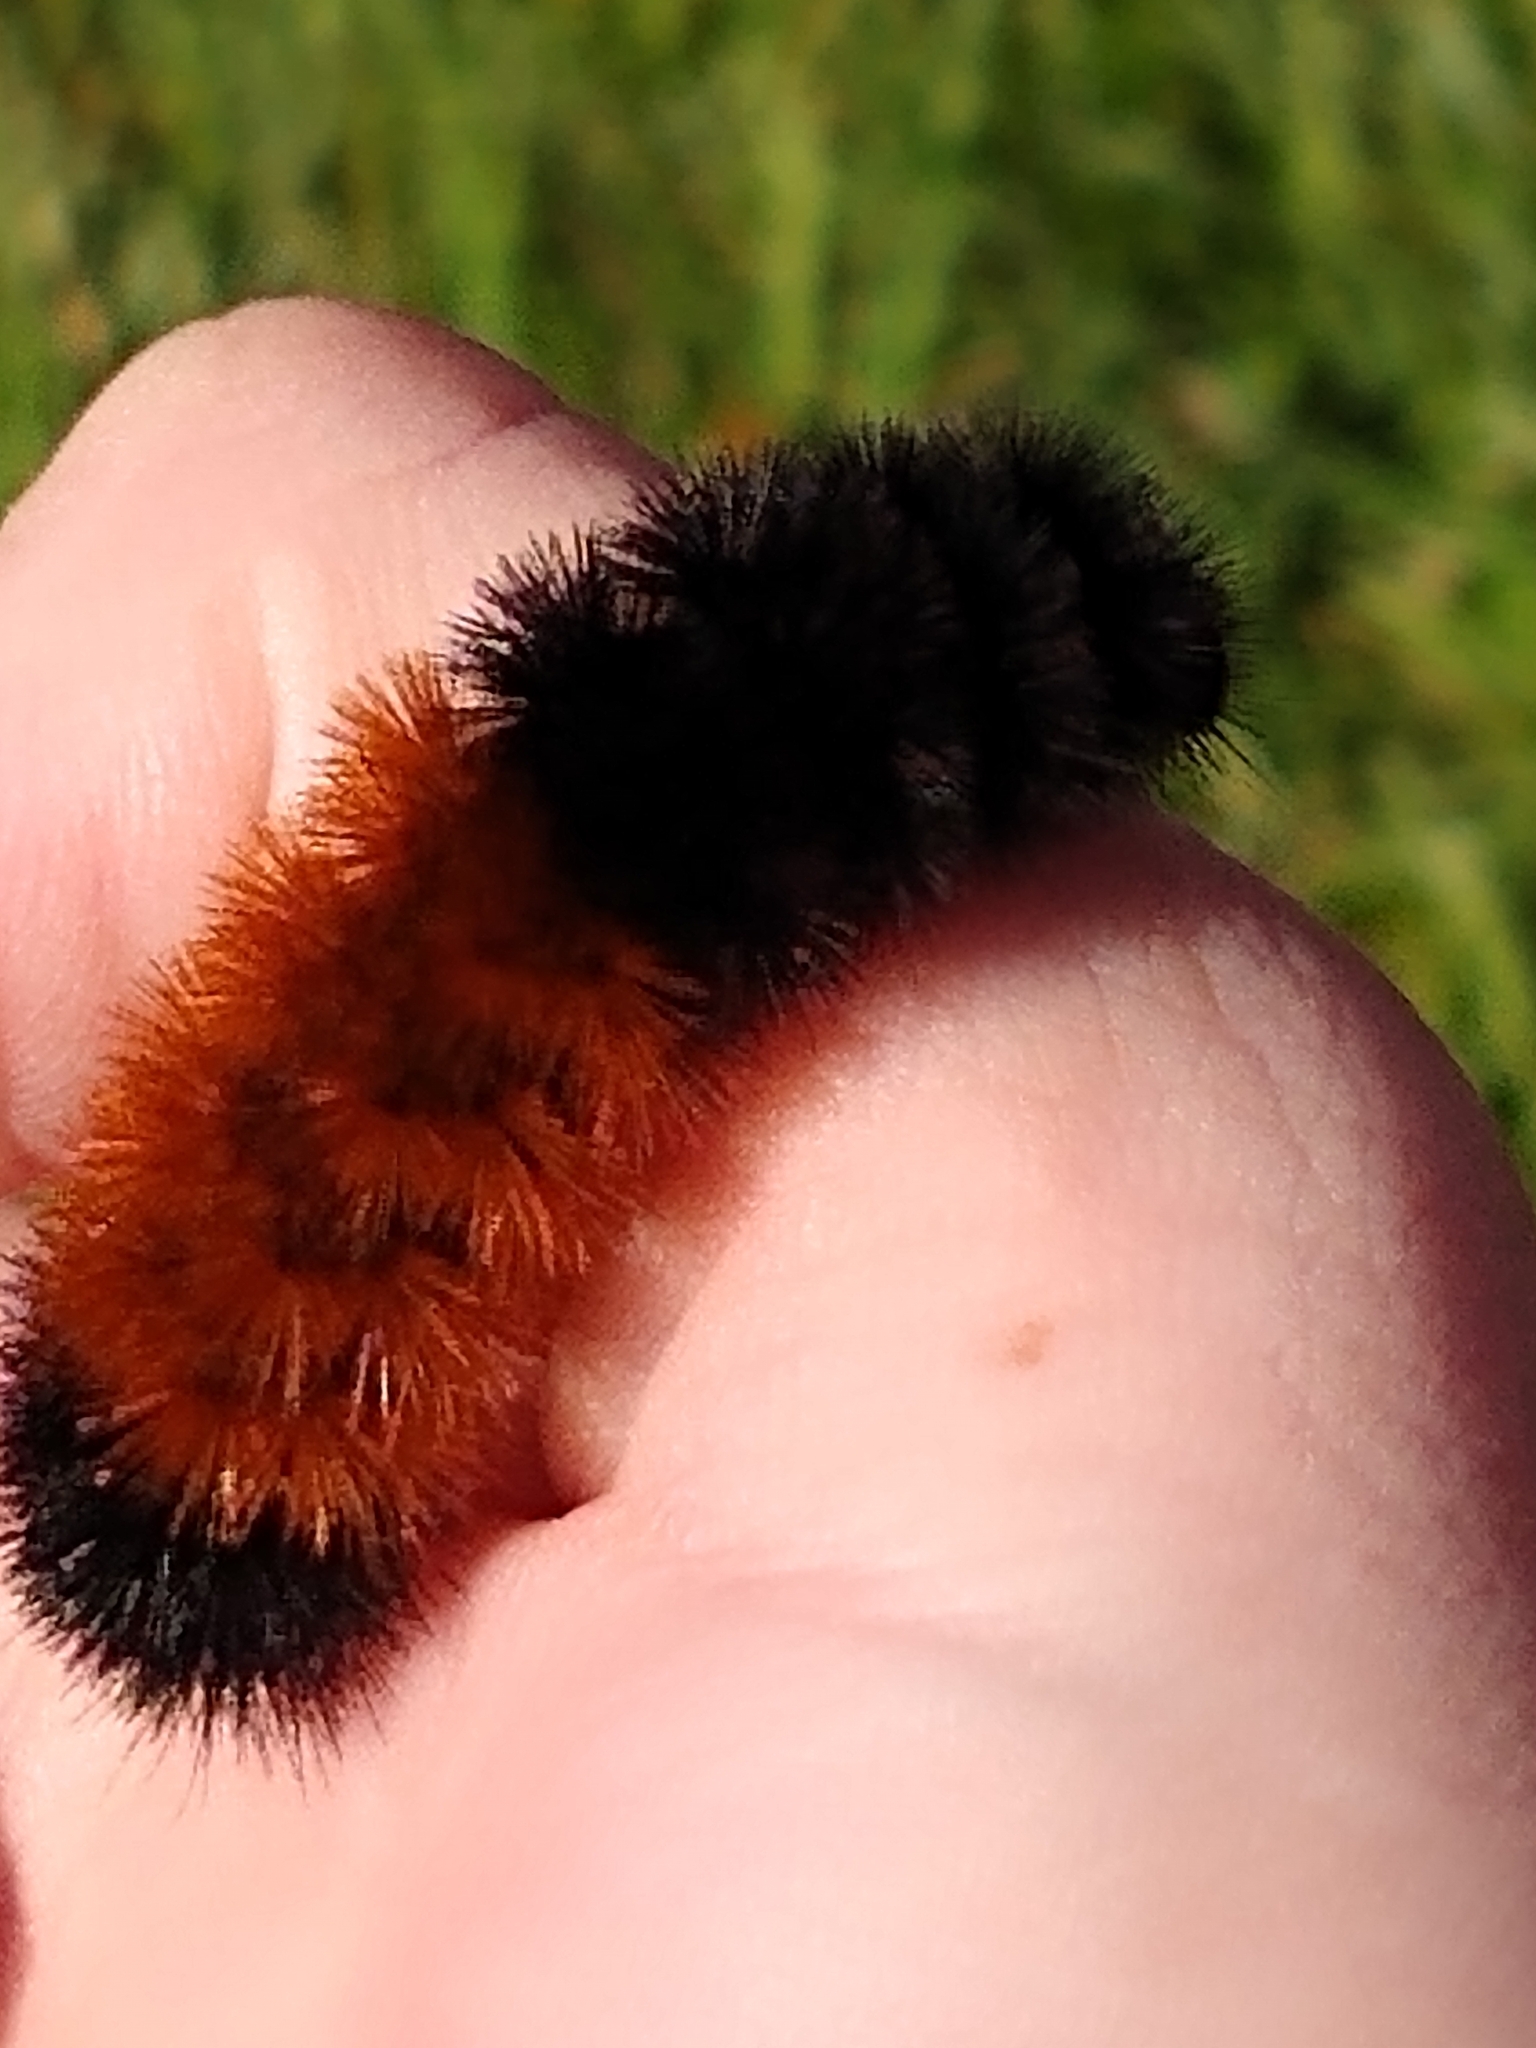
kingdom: Animalia
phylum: Arthropoda
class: Insecta
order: Lepidoptera
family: Erebidae
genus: Pyrrharctia
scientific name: Pyrrharctia isabella
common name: Isabella tiger moth
